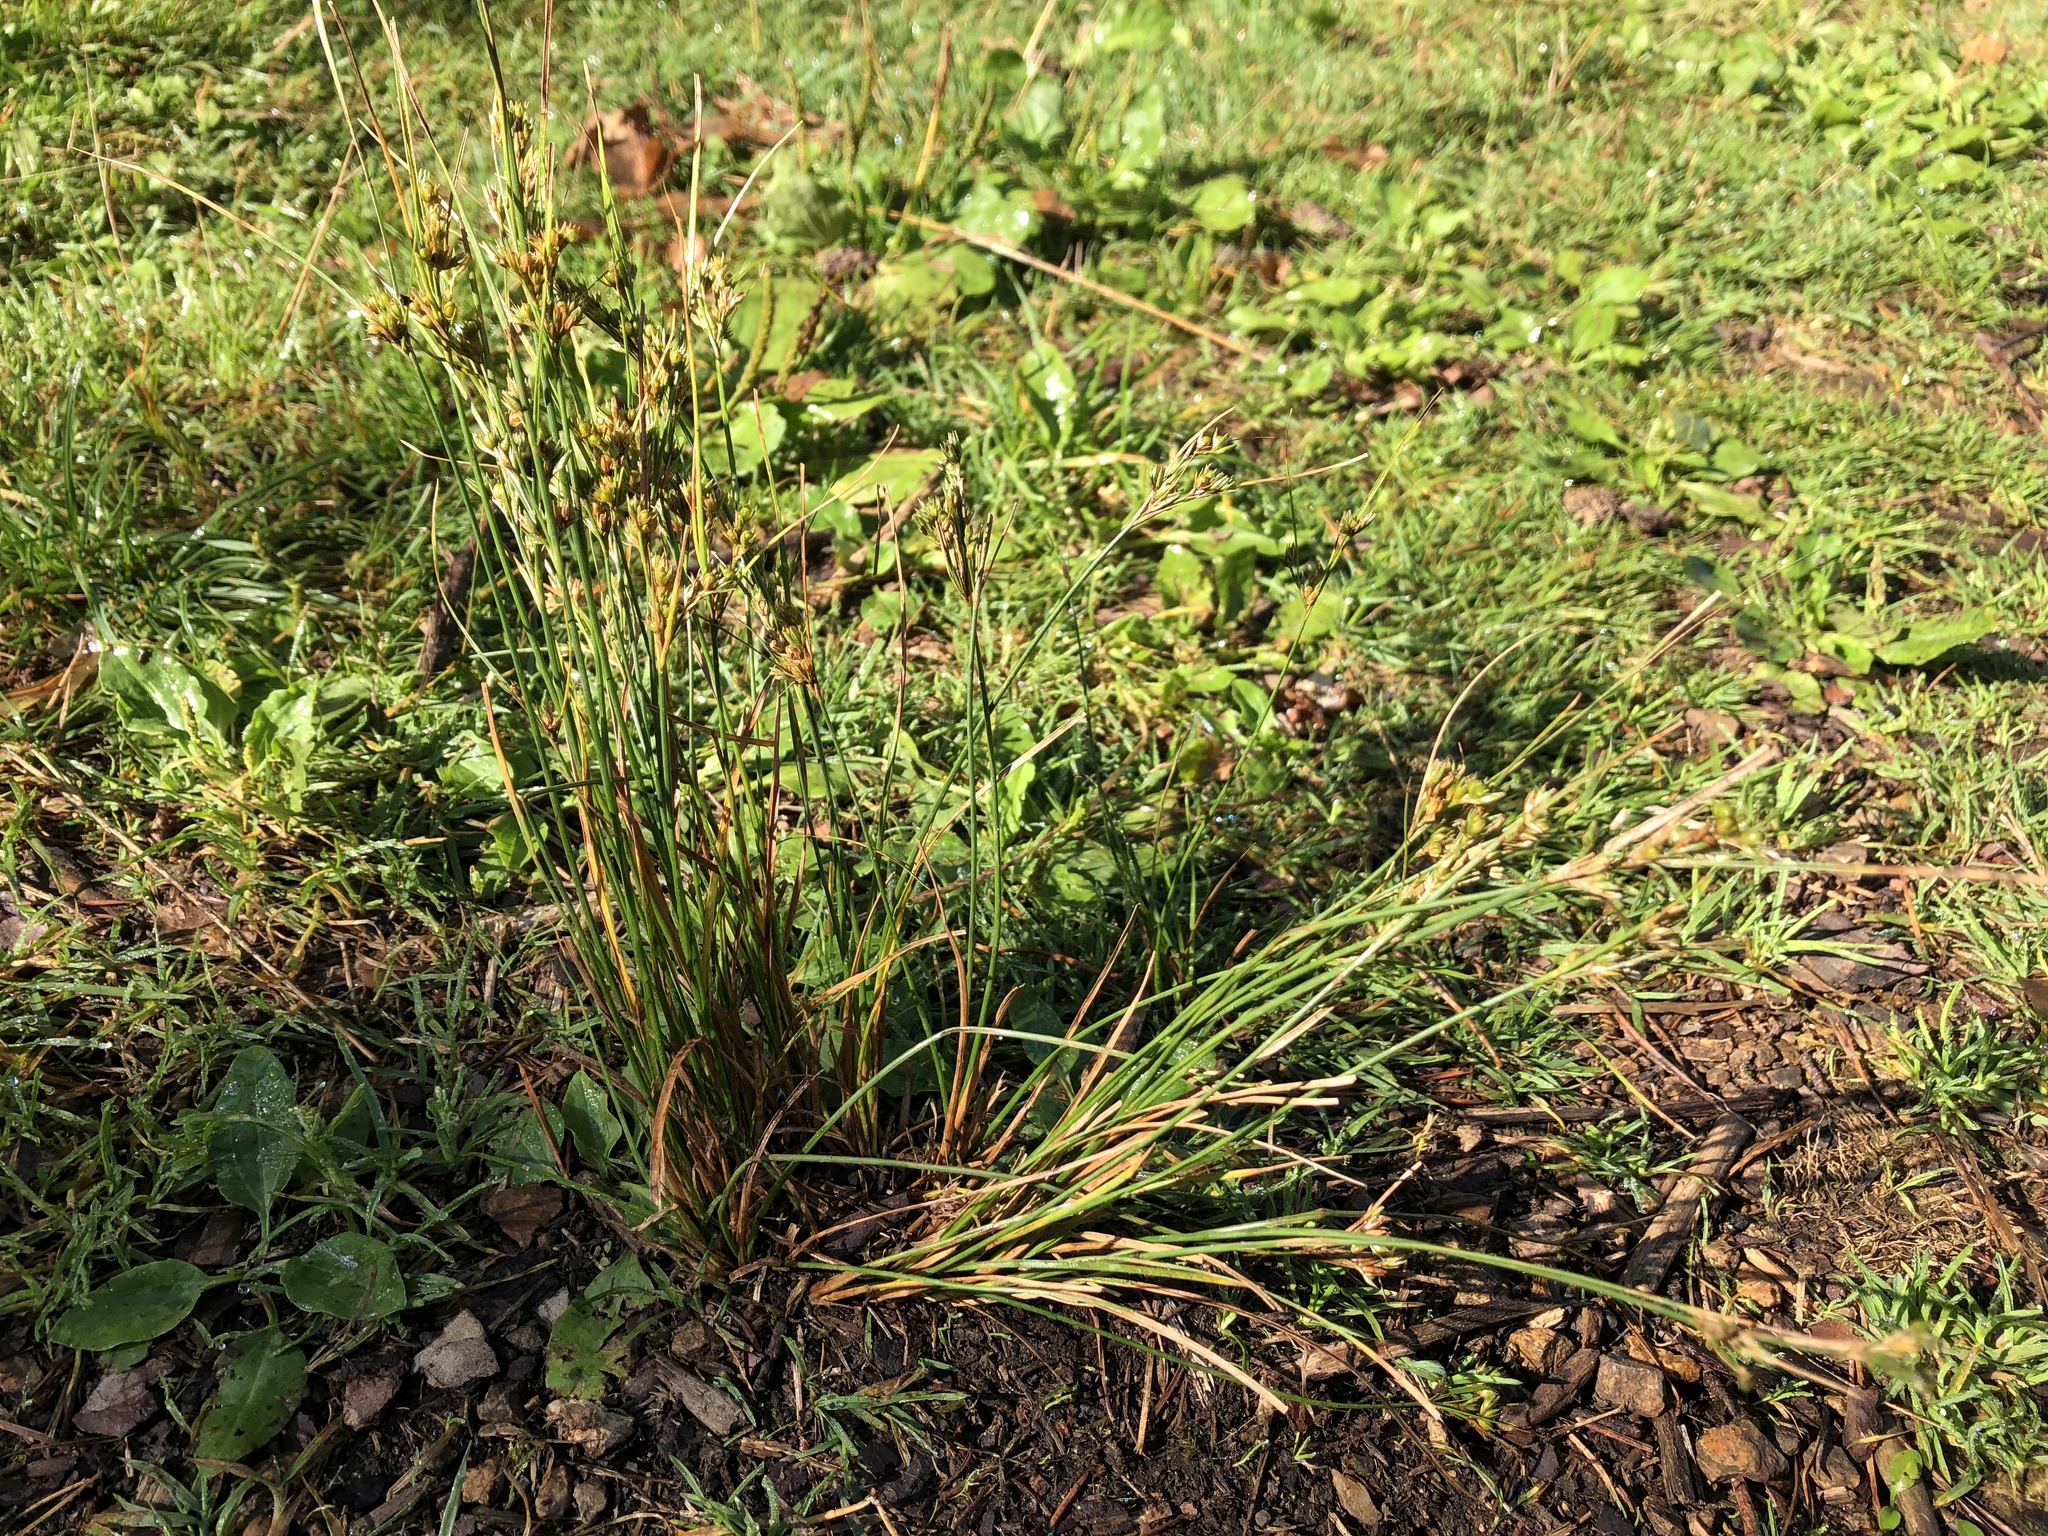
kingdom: Plantae
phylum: Tracheophyta
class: Liliopsida
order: Poales
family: Juncaceae
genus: Juncus
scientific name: Juncus tenuis
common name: Slender rush
